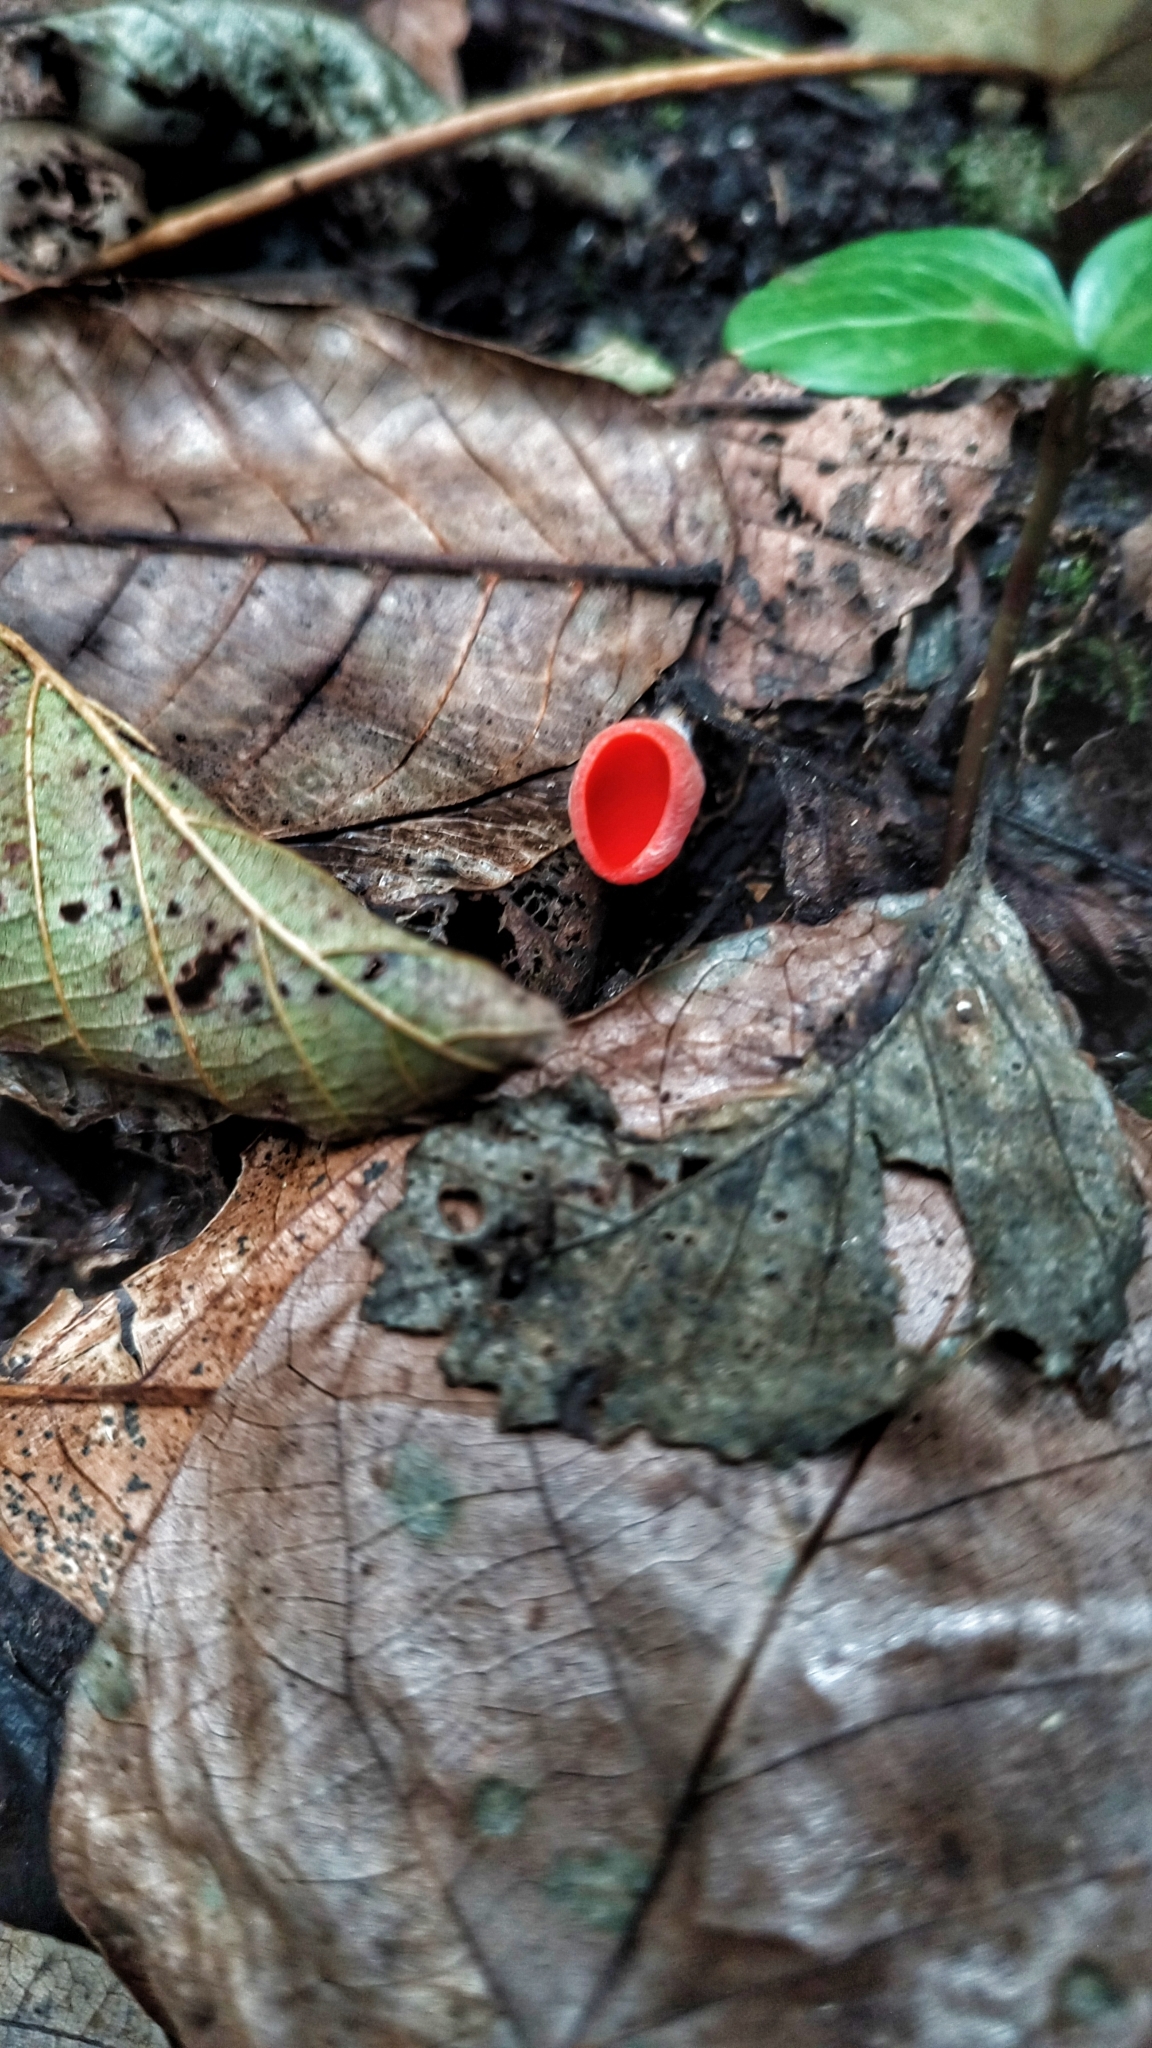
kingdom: Fungi
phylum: Ascomycota
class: Pezizomycetes
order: Pezizales
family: Sarcoscyphaceae
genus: Sarcoscypha
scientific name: Sarcoscypha
